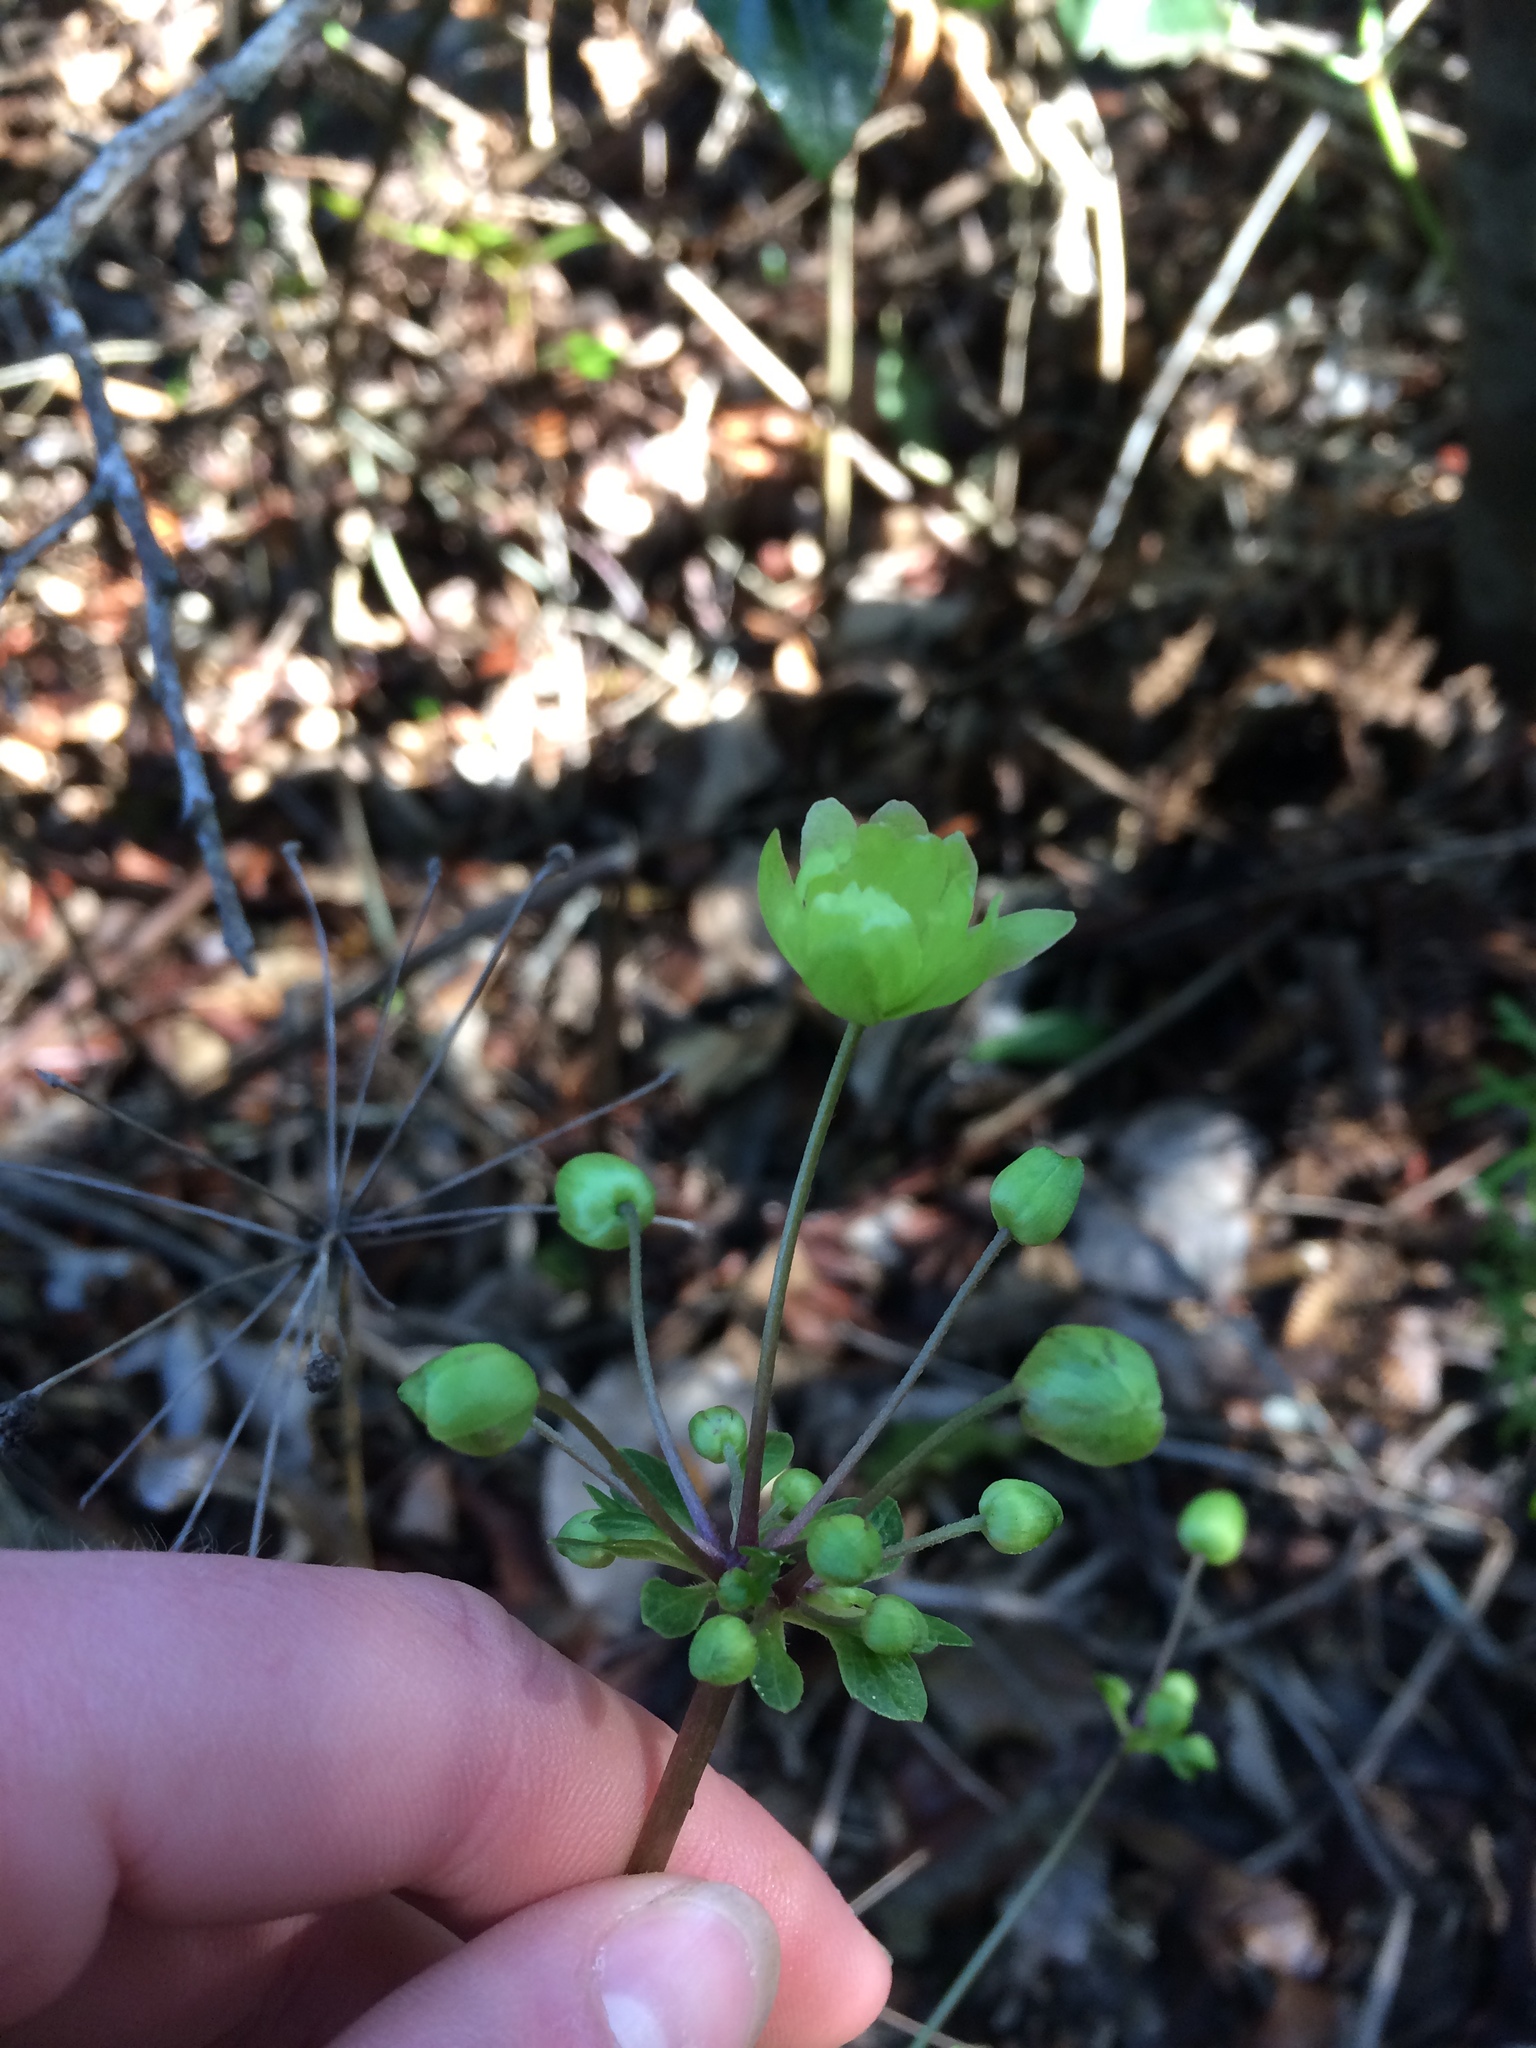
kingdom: Plantae
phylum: Tracheophyta
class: Magnoliopsida
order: Ranunculales
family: Ranunculaceae
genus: Knowltonia
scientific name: Knowltonia vesicatoria
